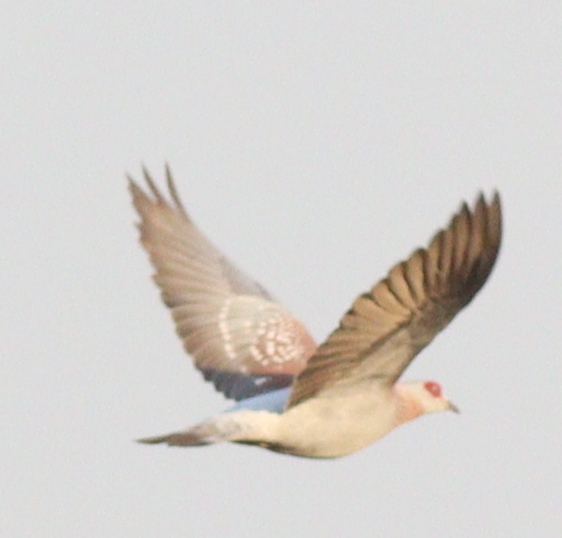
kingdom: Animalia
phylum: Chordata
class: Aves
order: Columbiformes
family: Columbidae
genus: Columba
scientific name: Columba guinea
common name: Speckled pigeon
